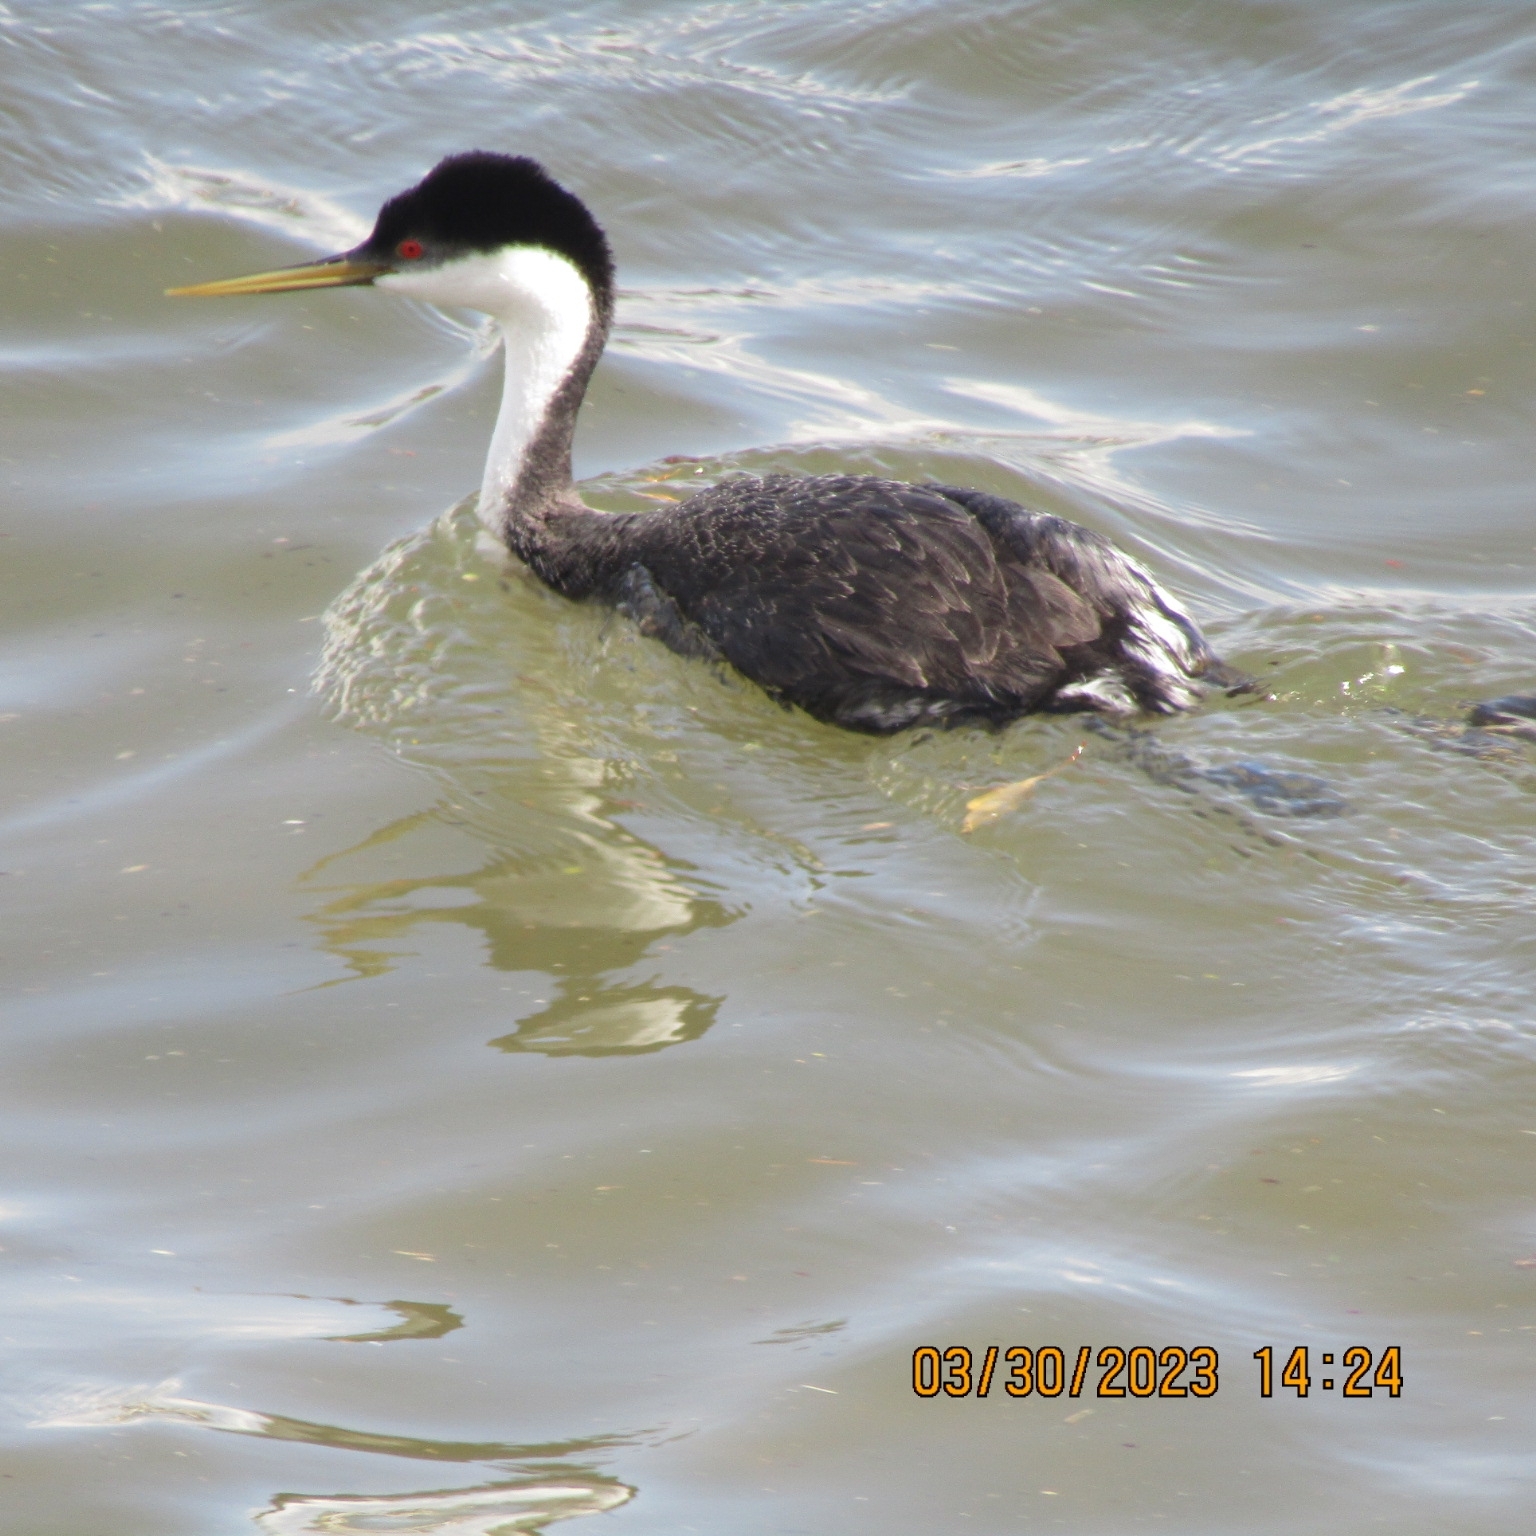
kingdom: Animalia
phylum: Chordata
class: Aves
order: Podicipediformes
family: Podicipedidae
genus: Aechmophorus
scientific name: Aechmophorus occidentalis
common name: Western grebe
